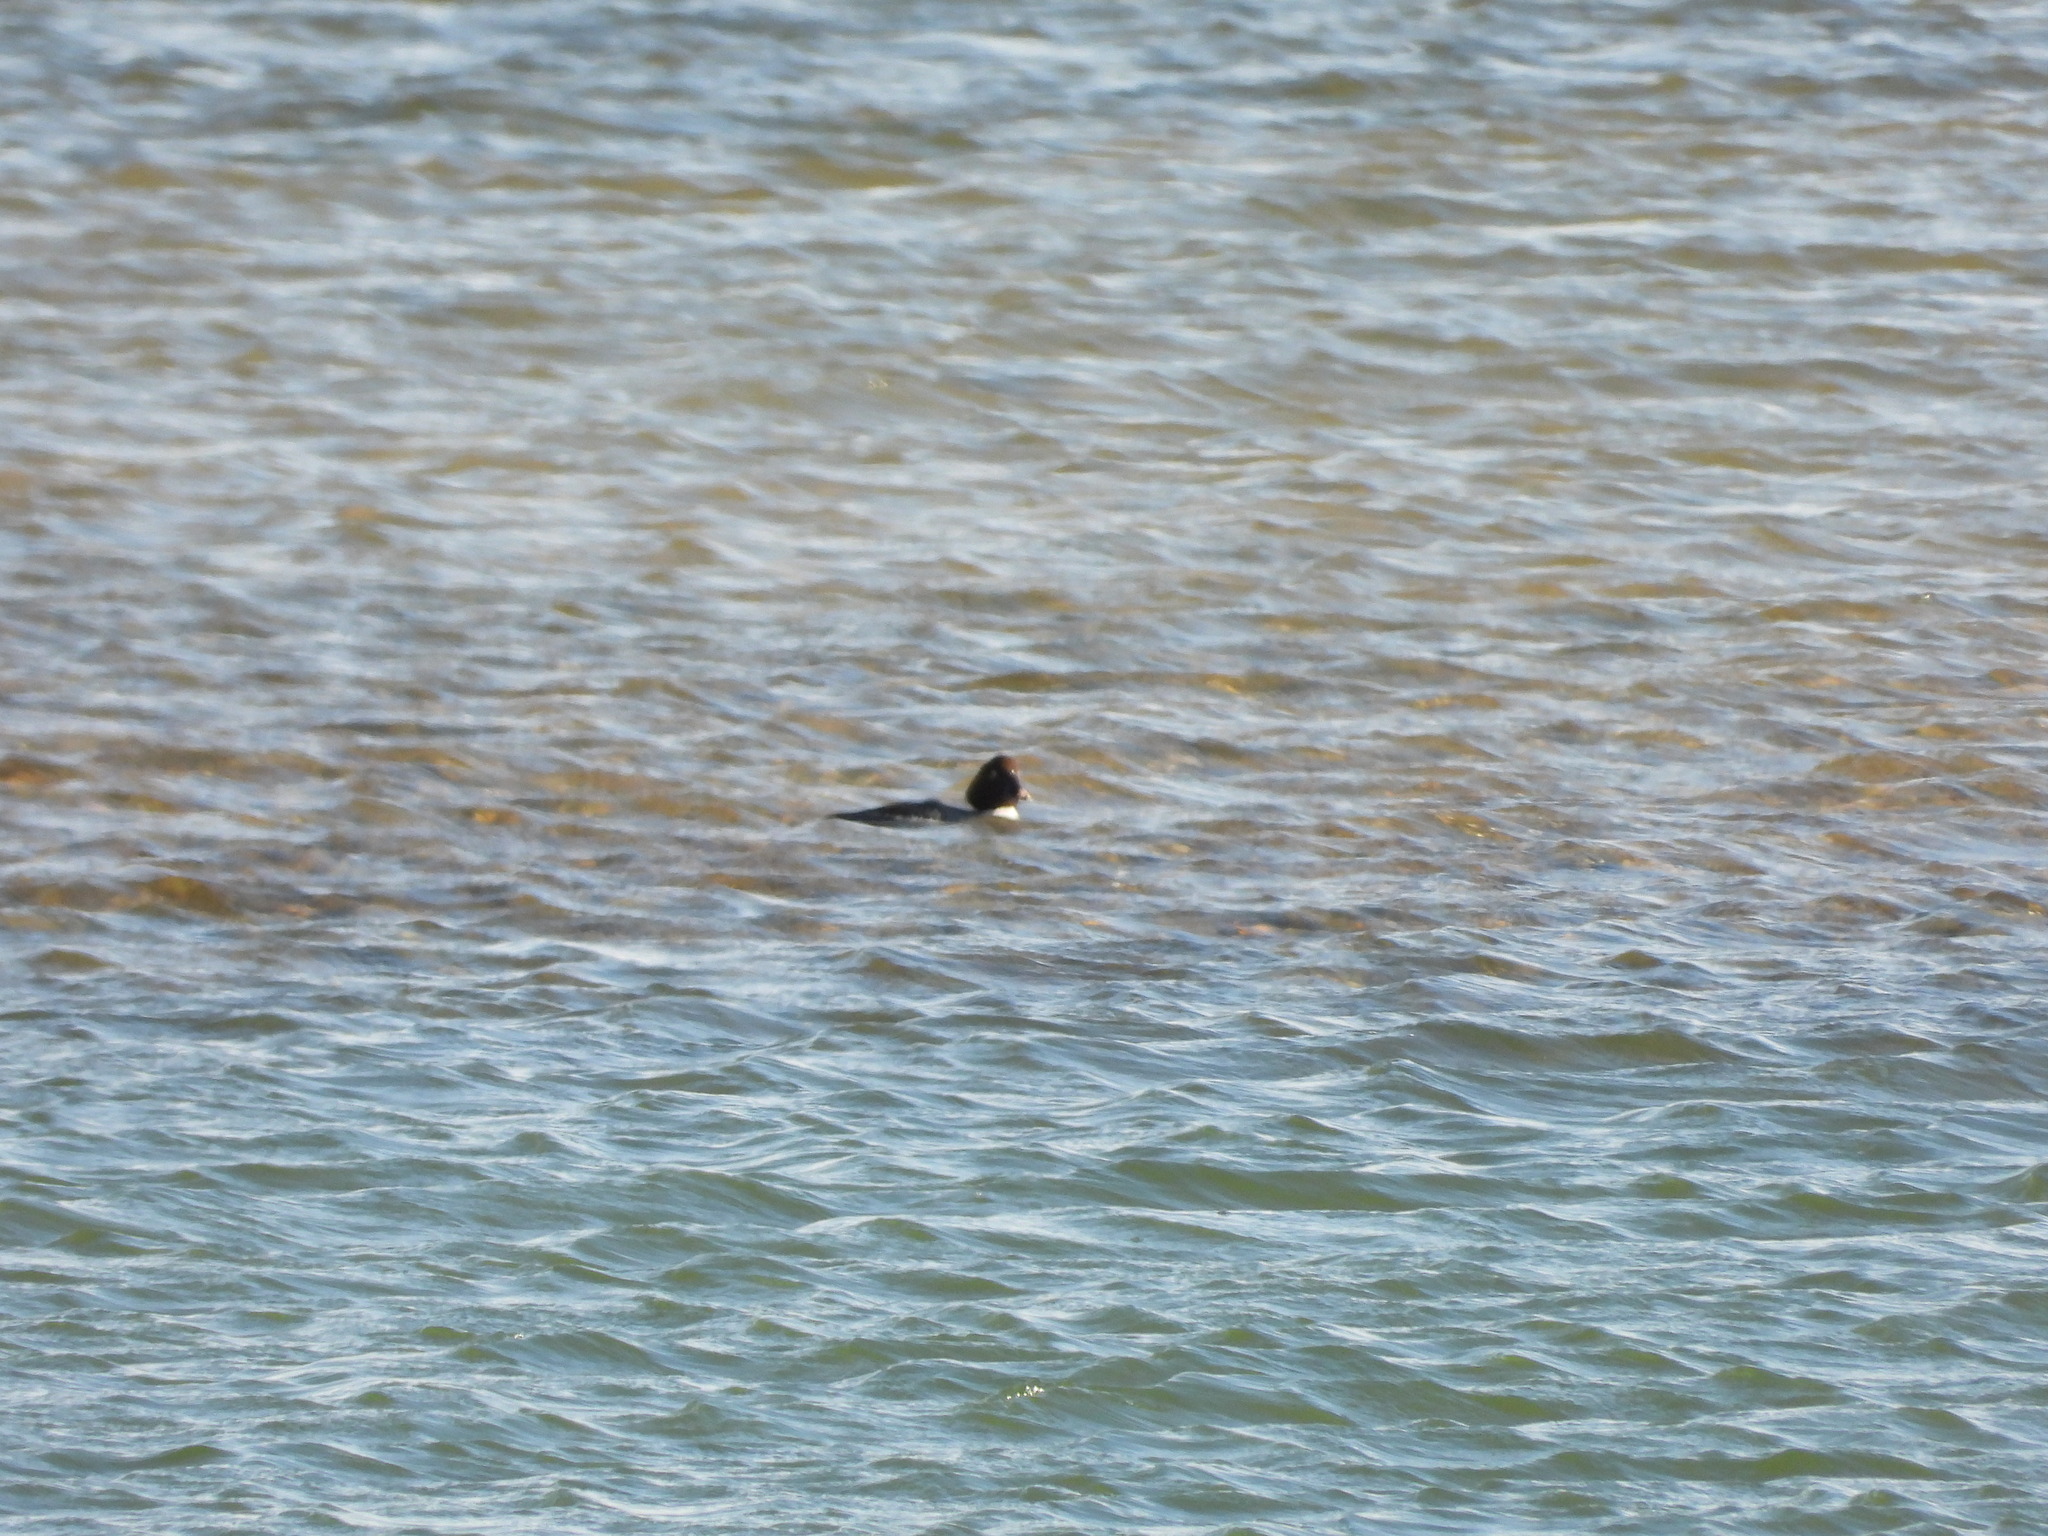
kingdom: Animalia
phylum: Chordata
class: Aves
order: Anseriformes
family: Anatidae
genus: Bucephala
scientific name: Bucephala clangula
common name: Common goldeneye
